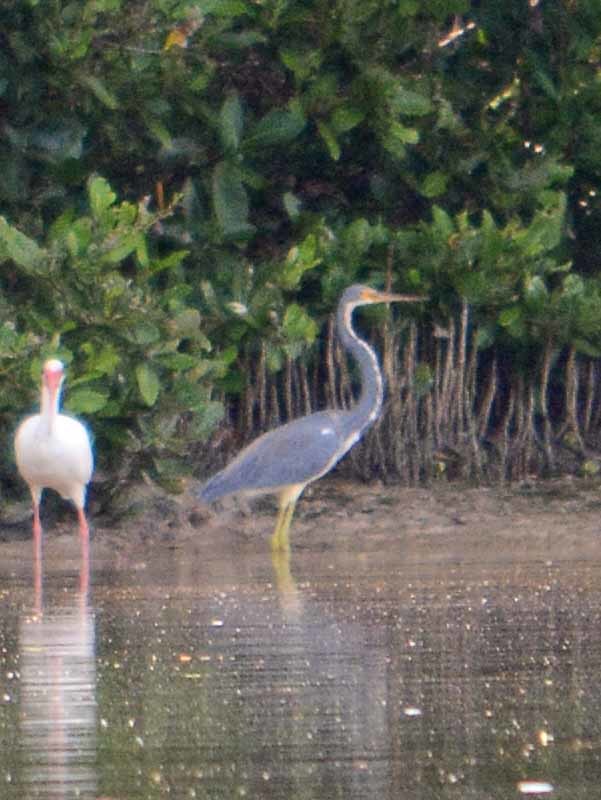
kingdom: Animalia
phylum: Chordata
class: Aves
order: Pelecaniformes
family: Ardeidae
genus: Egretta
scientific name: Egretta tricolor
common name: Tricolored heron
